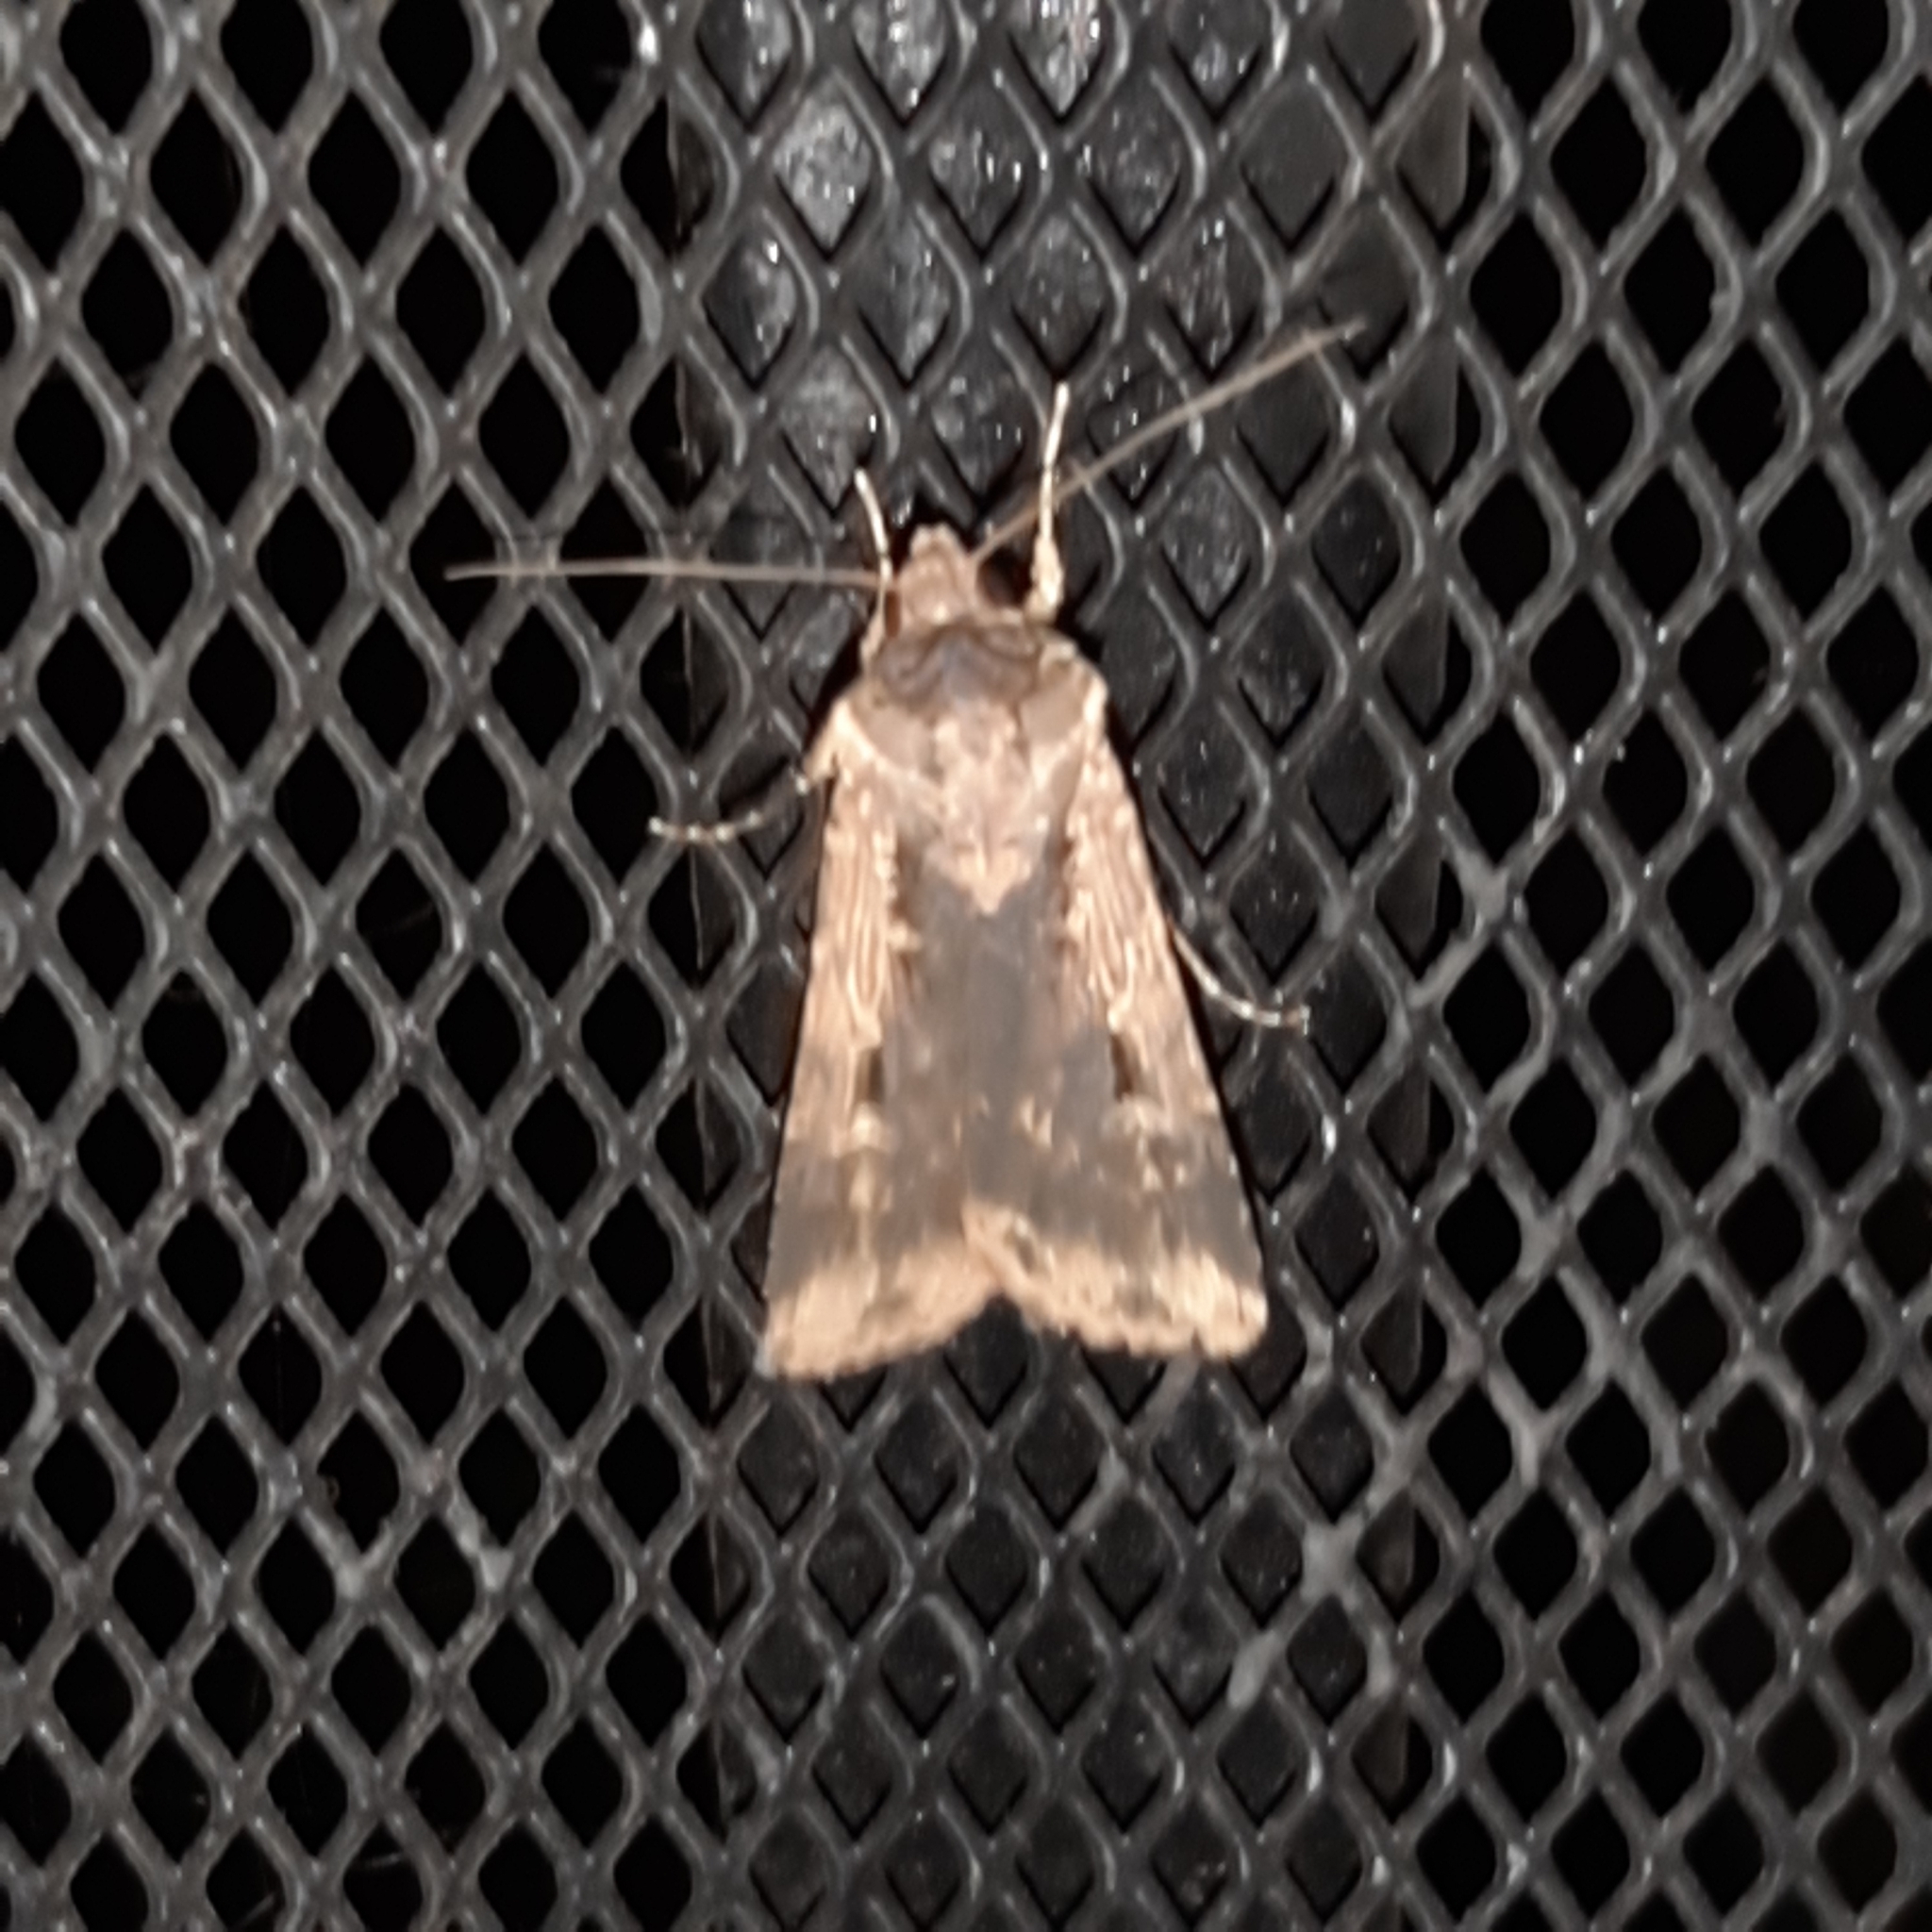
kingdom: Animalia
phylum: Arthropoda
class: Insecta
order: Lepidoptera
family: Noctuidae
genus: Feltia
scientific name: Feltia subterranea
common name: Granulate cutworm
